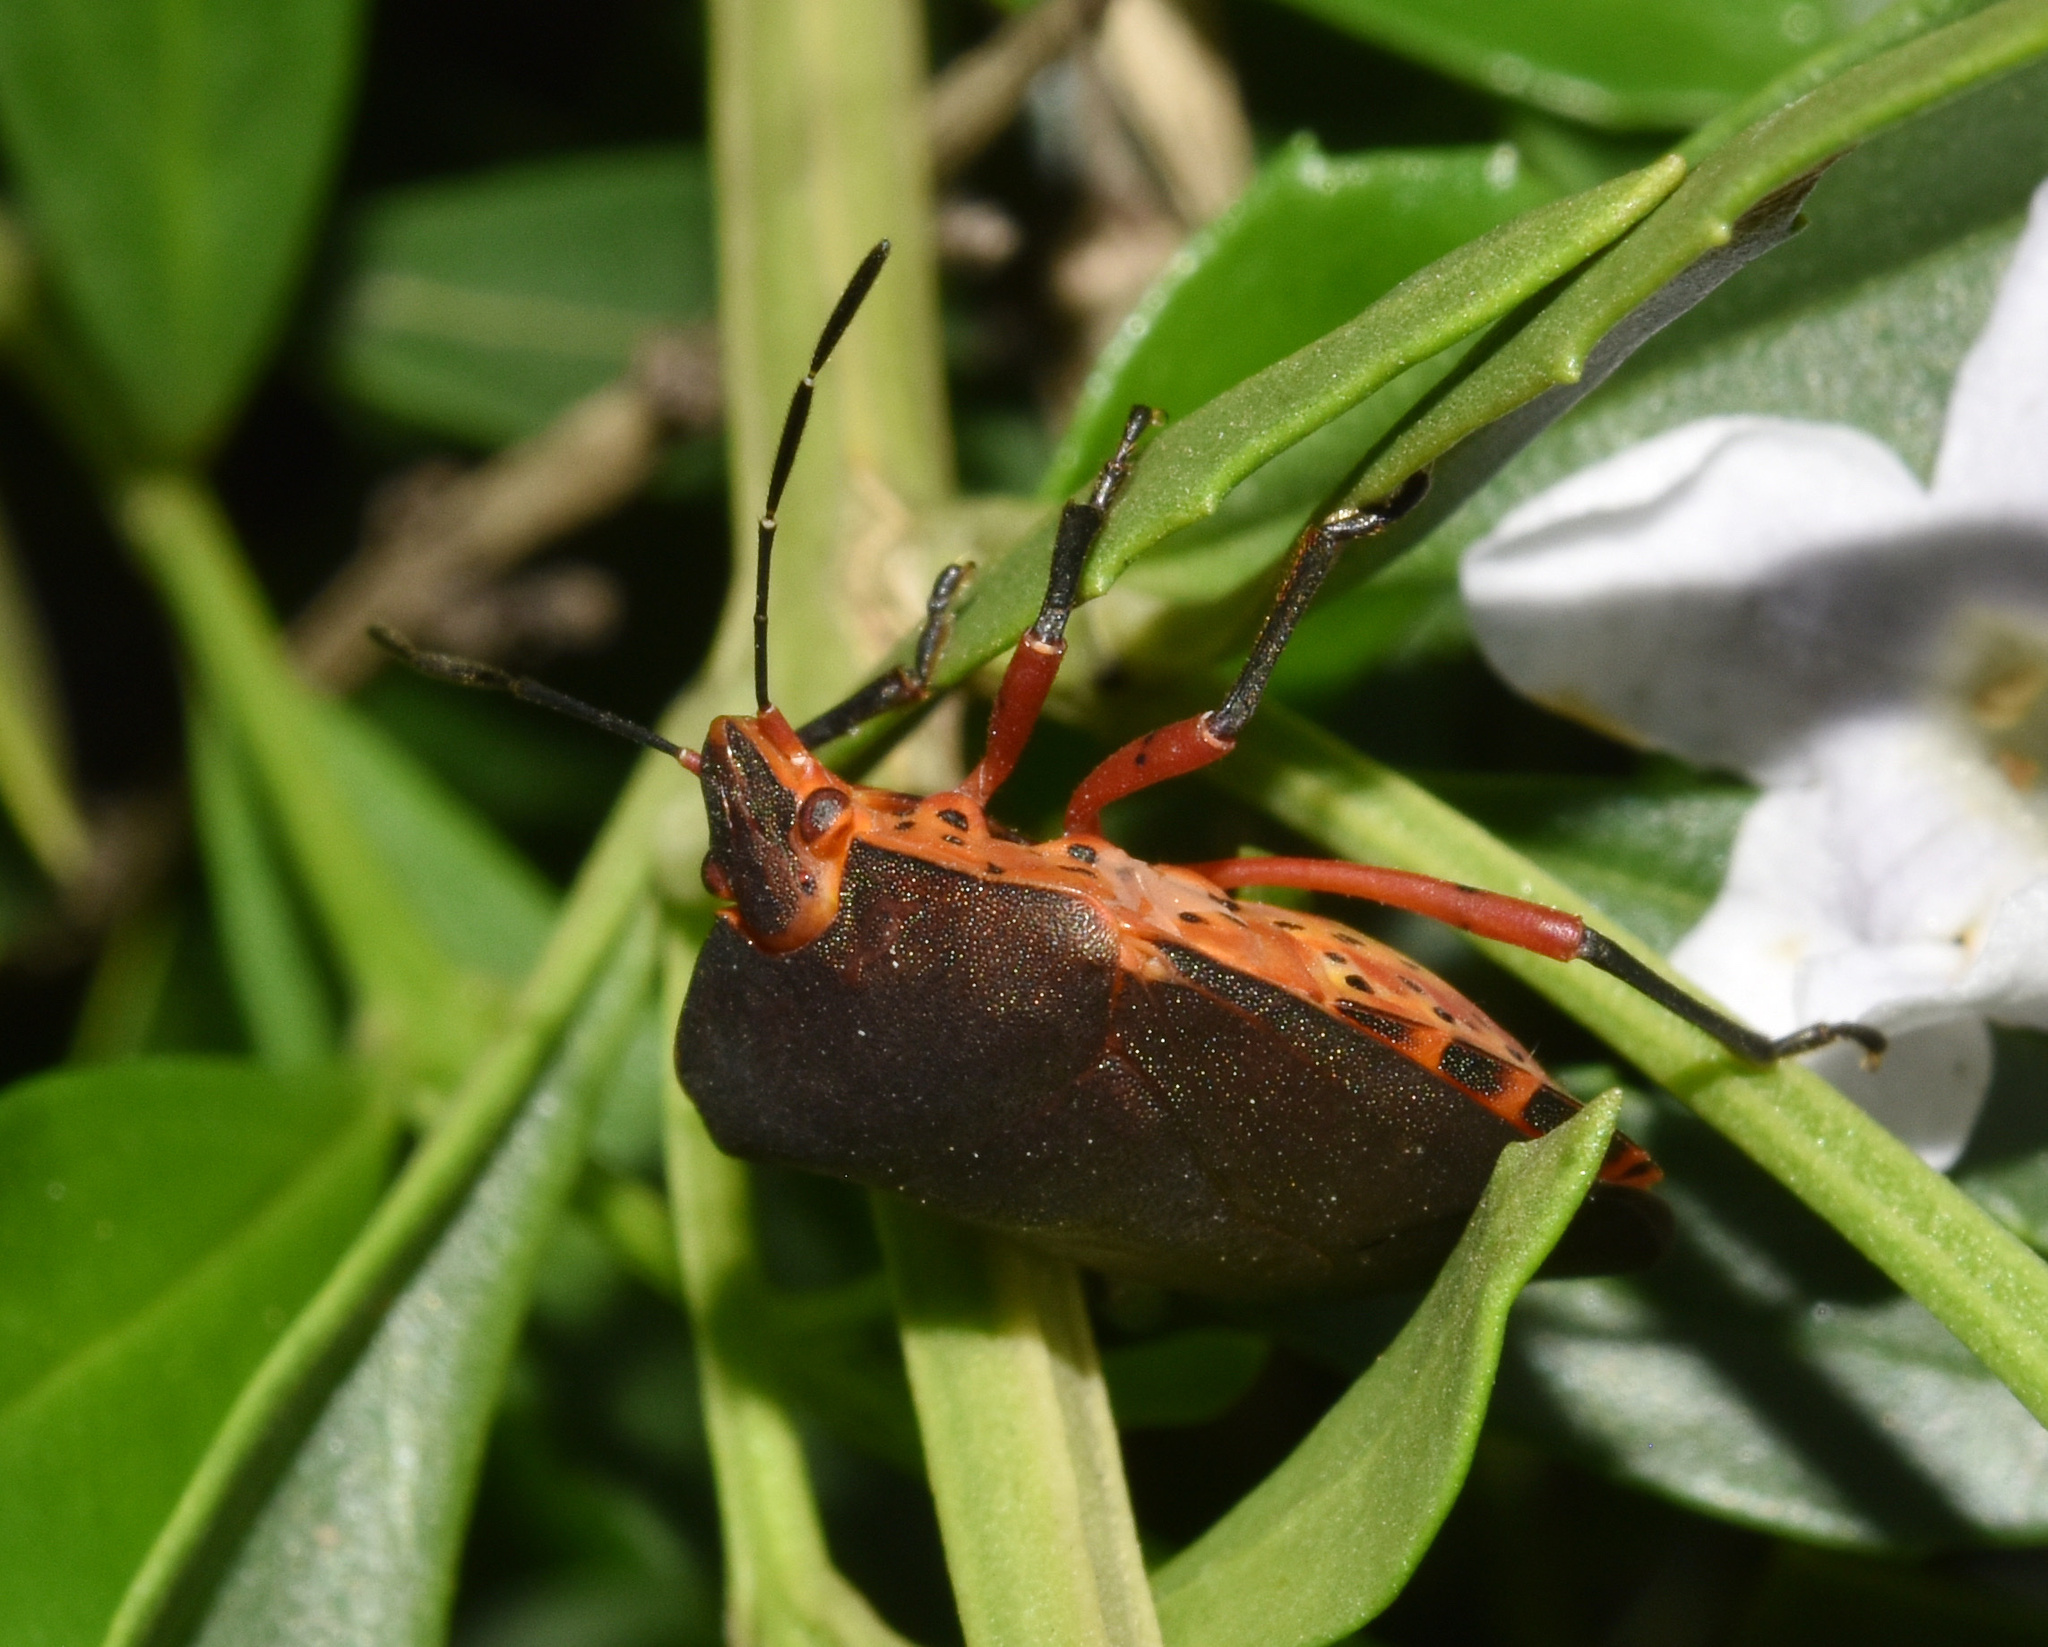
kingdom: Animalia
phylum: Arthropoda
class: Insecta
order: Hemiptera
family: Pentatomidae
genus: Caura
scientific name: Caura rufiventris
